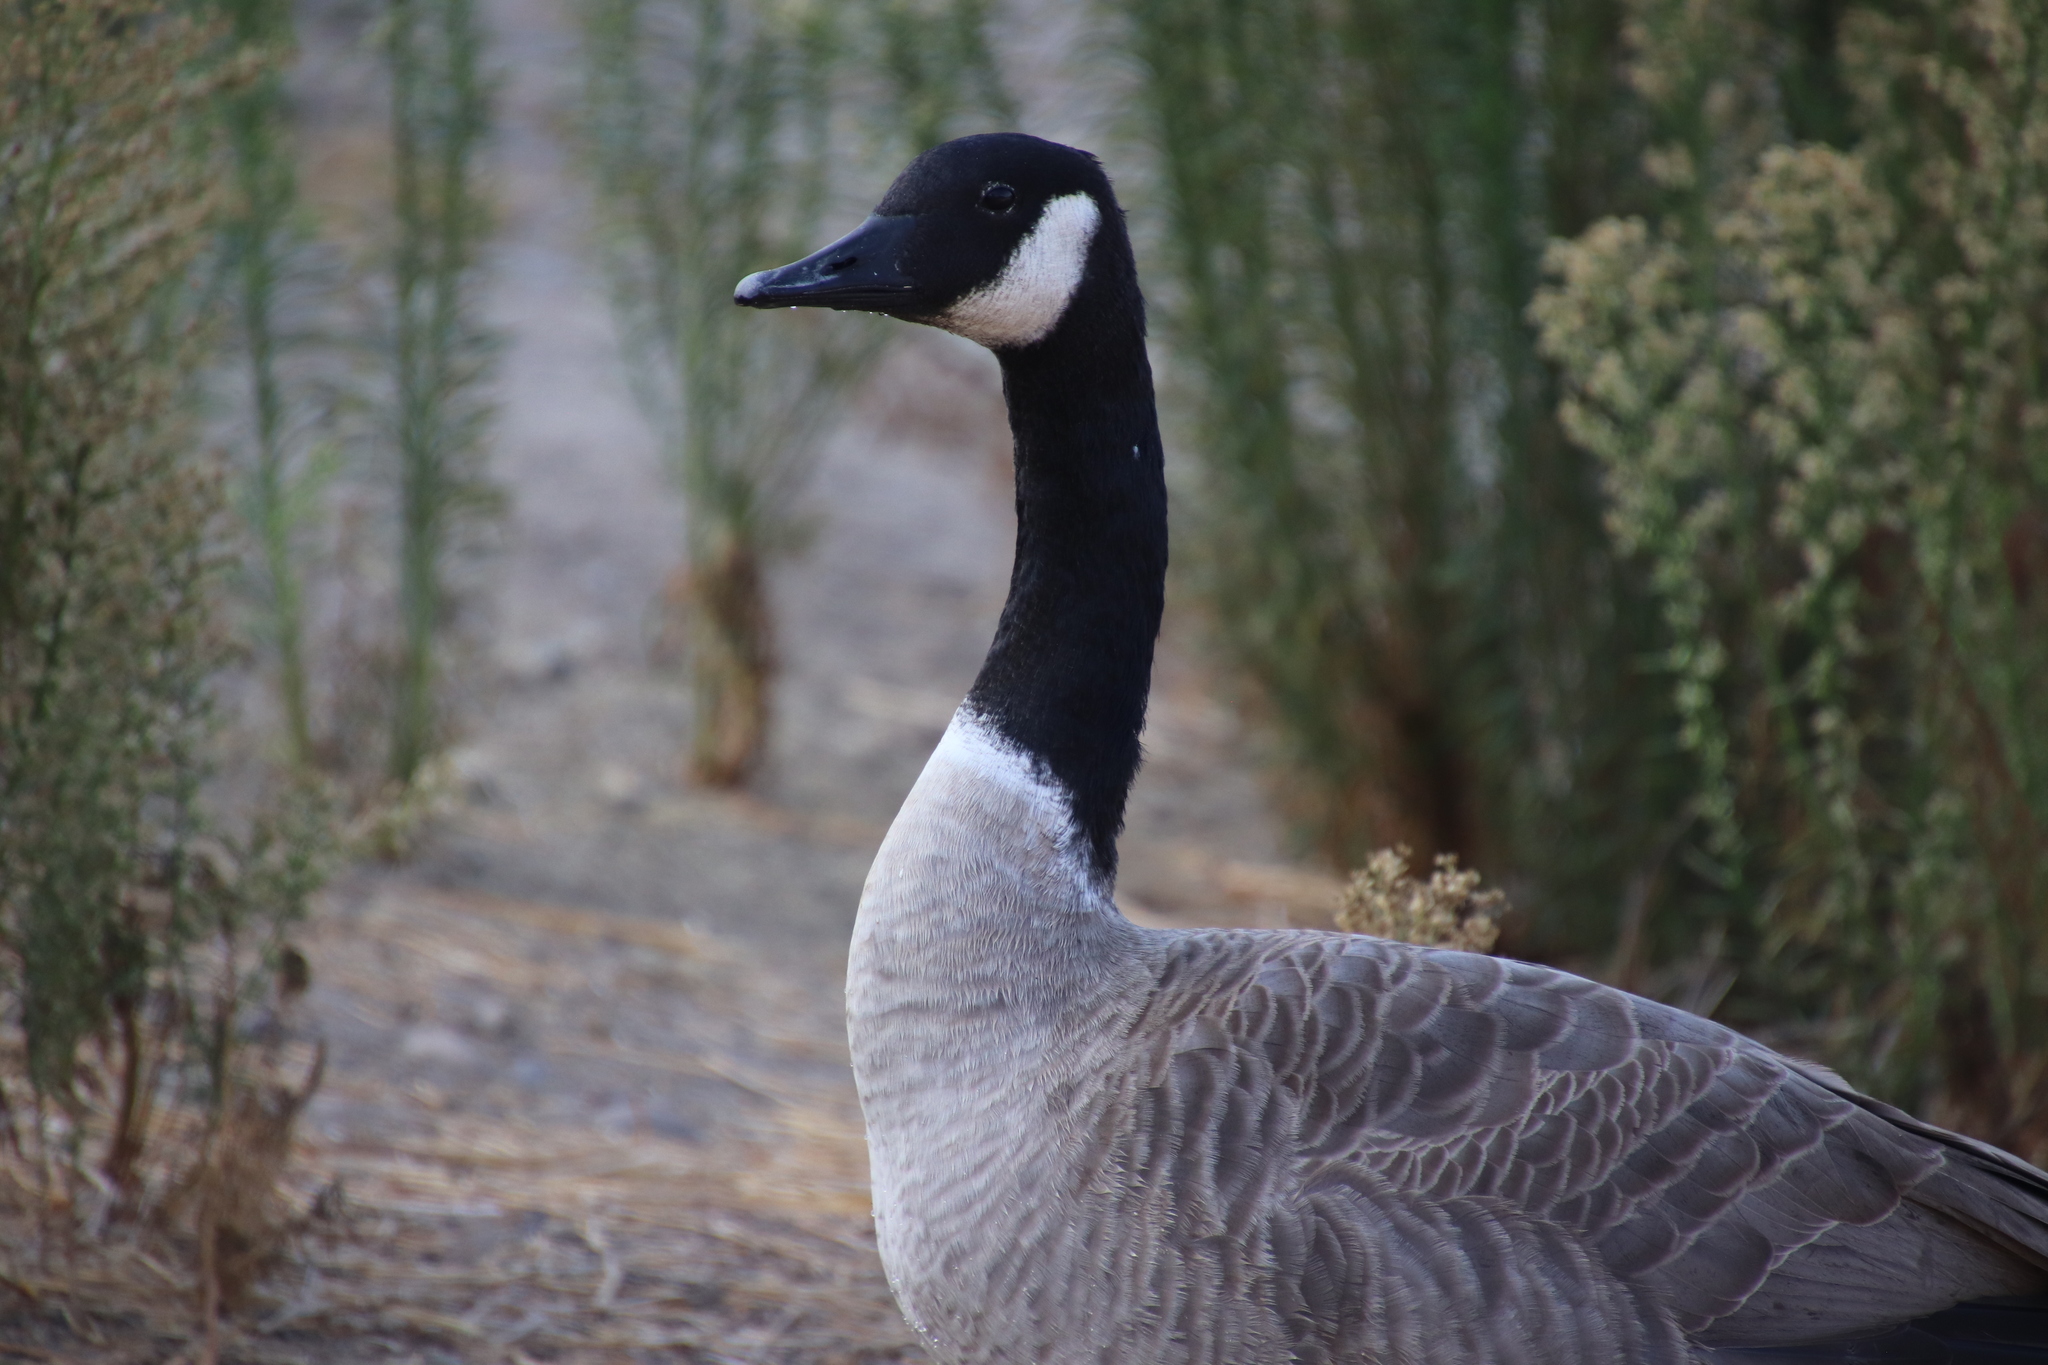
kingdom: Animalia
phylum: Chordata
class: Aves
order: Anseriformes
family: Anatidae
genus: Branta
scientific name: Branta canadensis
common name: Canada goose
